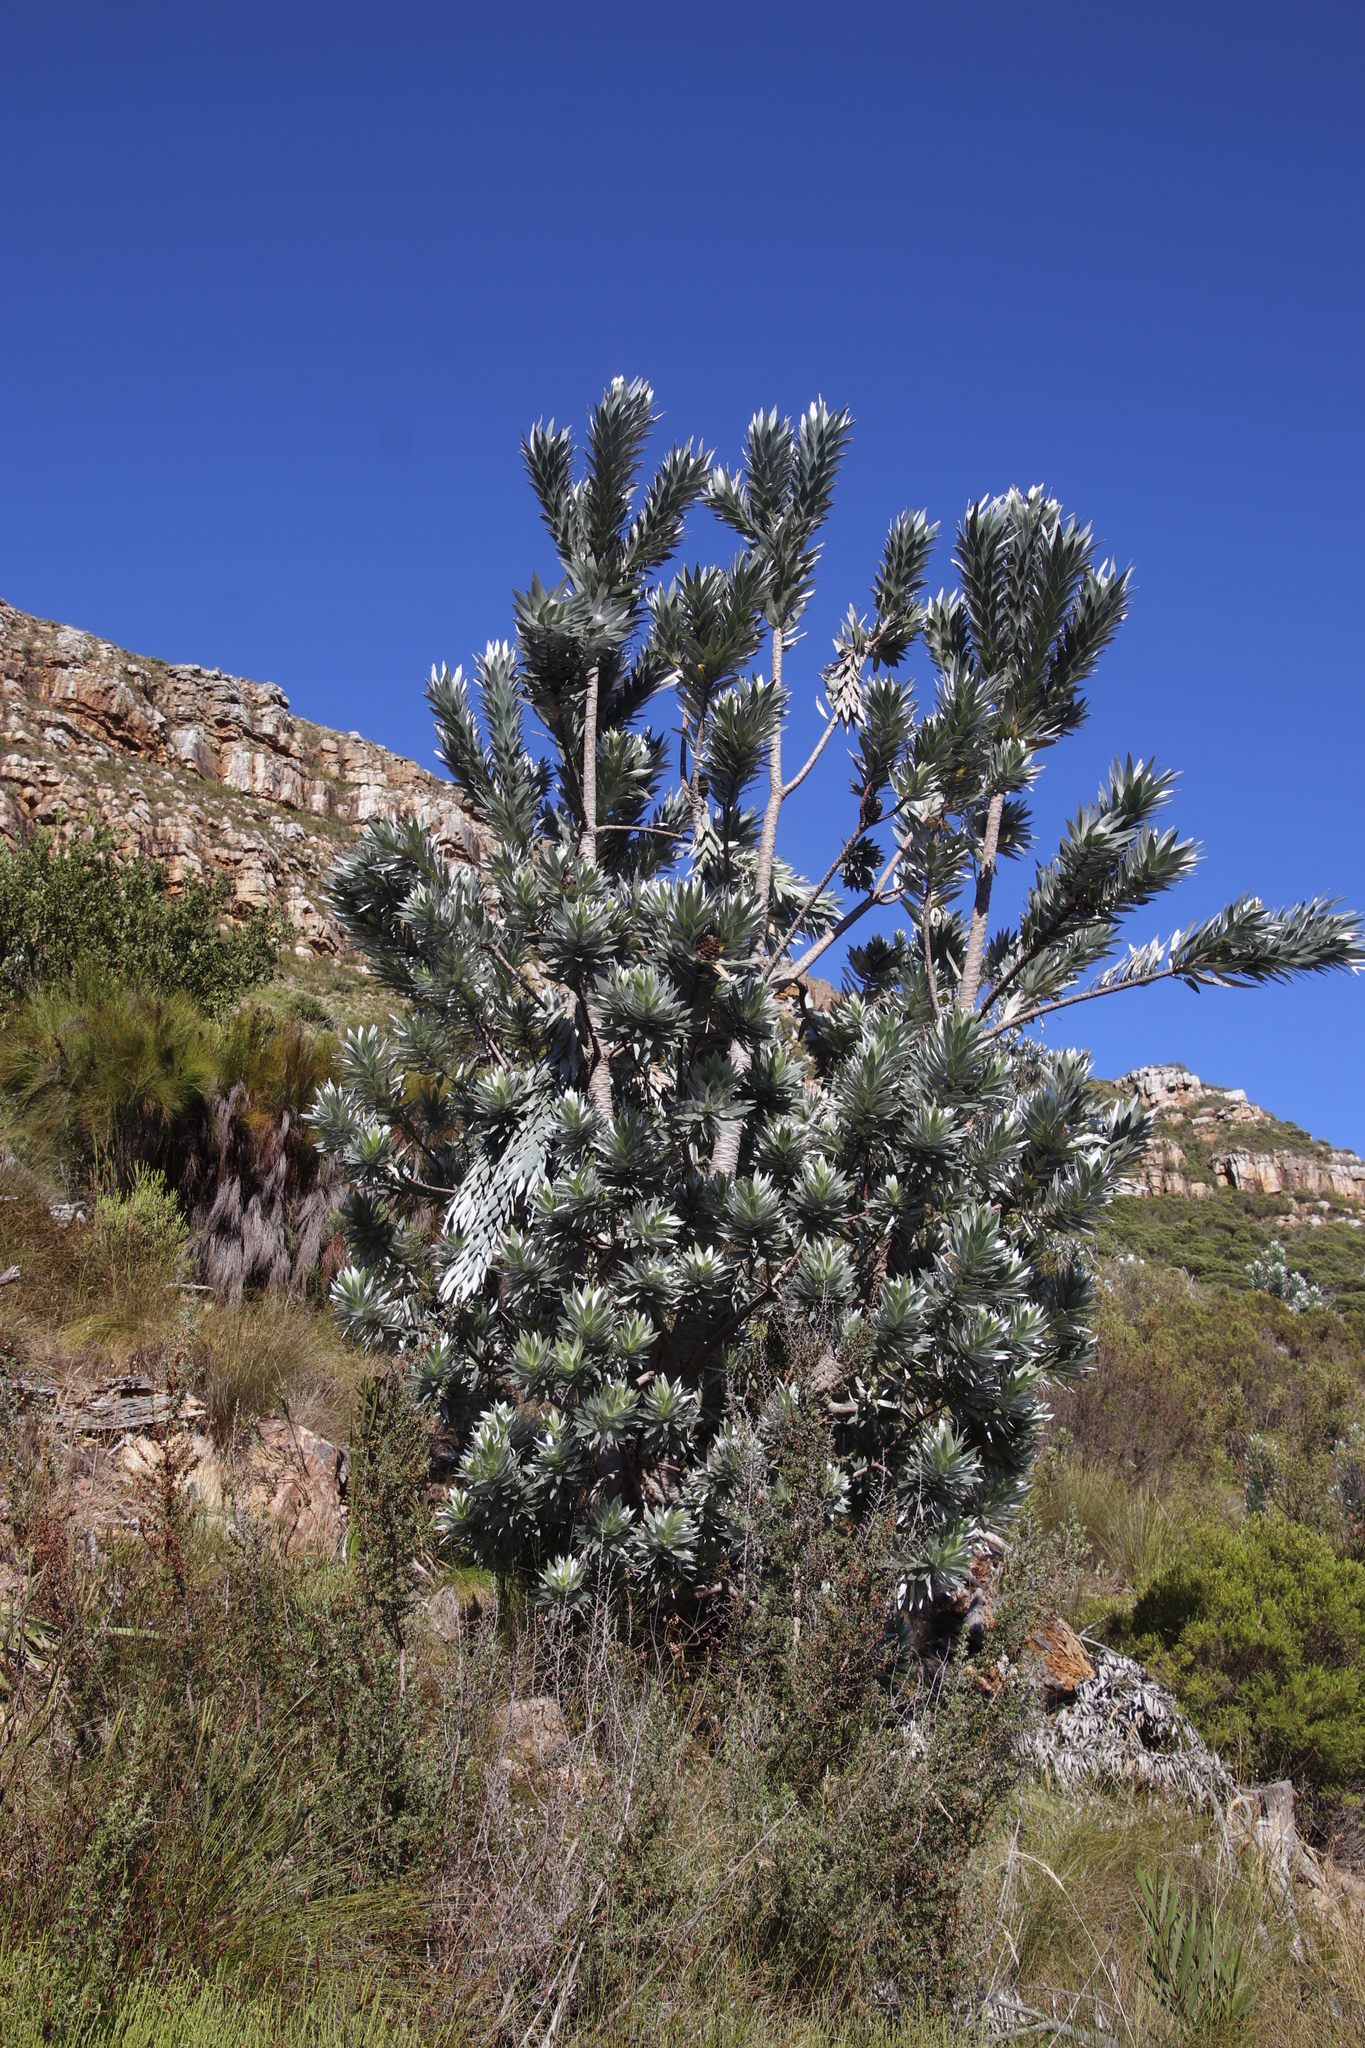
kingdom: Plantae
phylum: Tracheophyta
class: Magnoliopsida
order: Proteales
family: Proteaceae
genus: Leucadendron
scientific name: Leucadendron argenteum
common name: Cape silver tree
